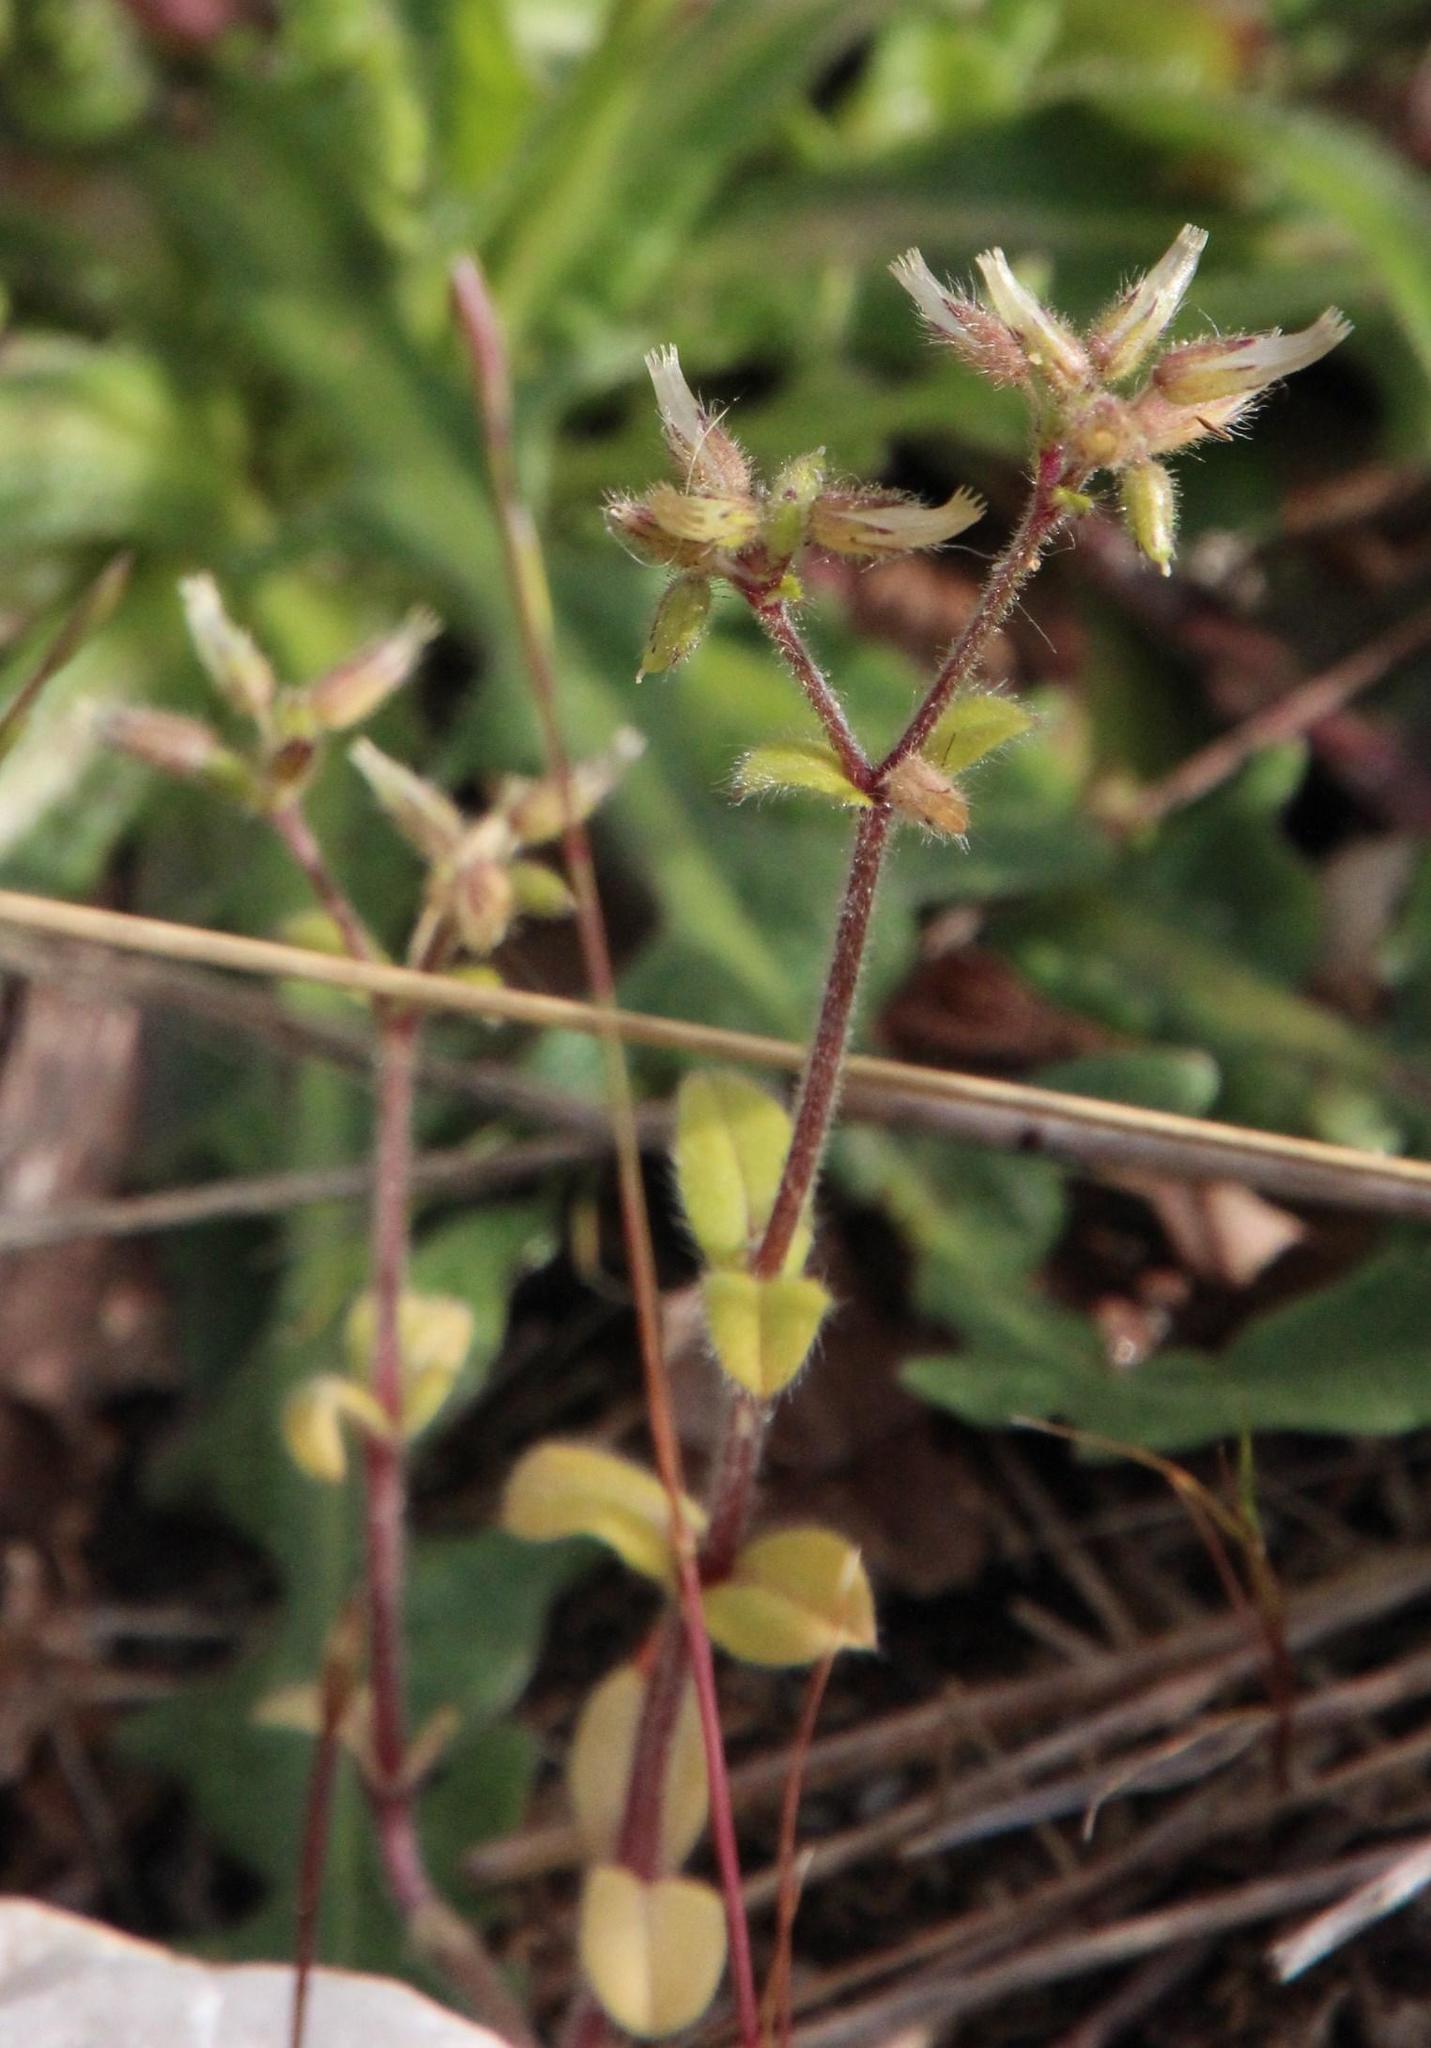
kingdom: Plantae
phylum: Tracheophyta
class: Magnoliopsida
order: Caryophyllales
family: Caryophyllaceae
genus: Cerastium
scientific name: Cerastium glomeratum
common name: Sticky chickweed
